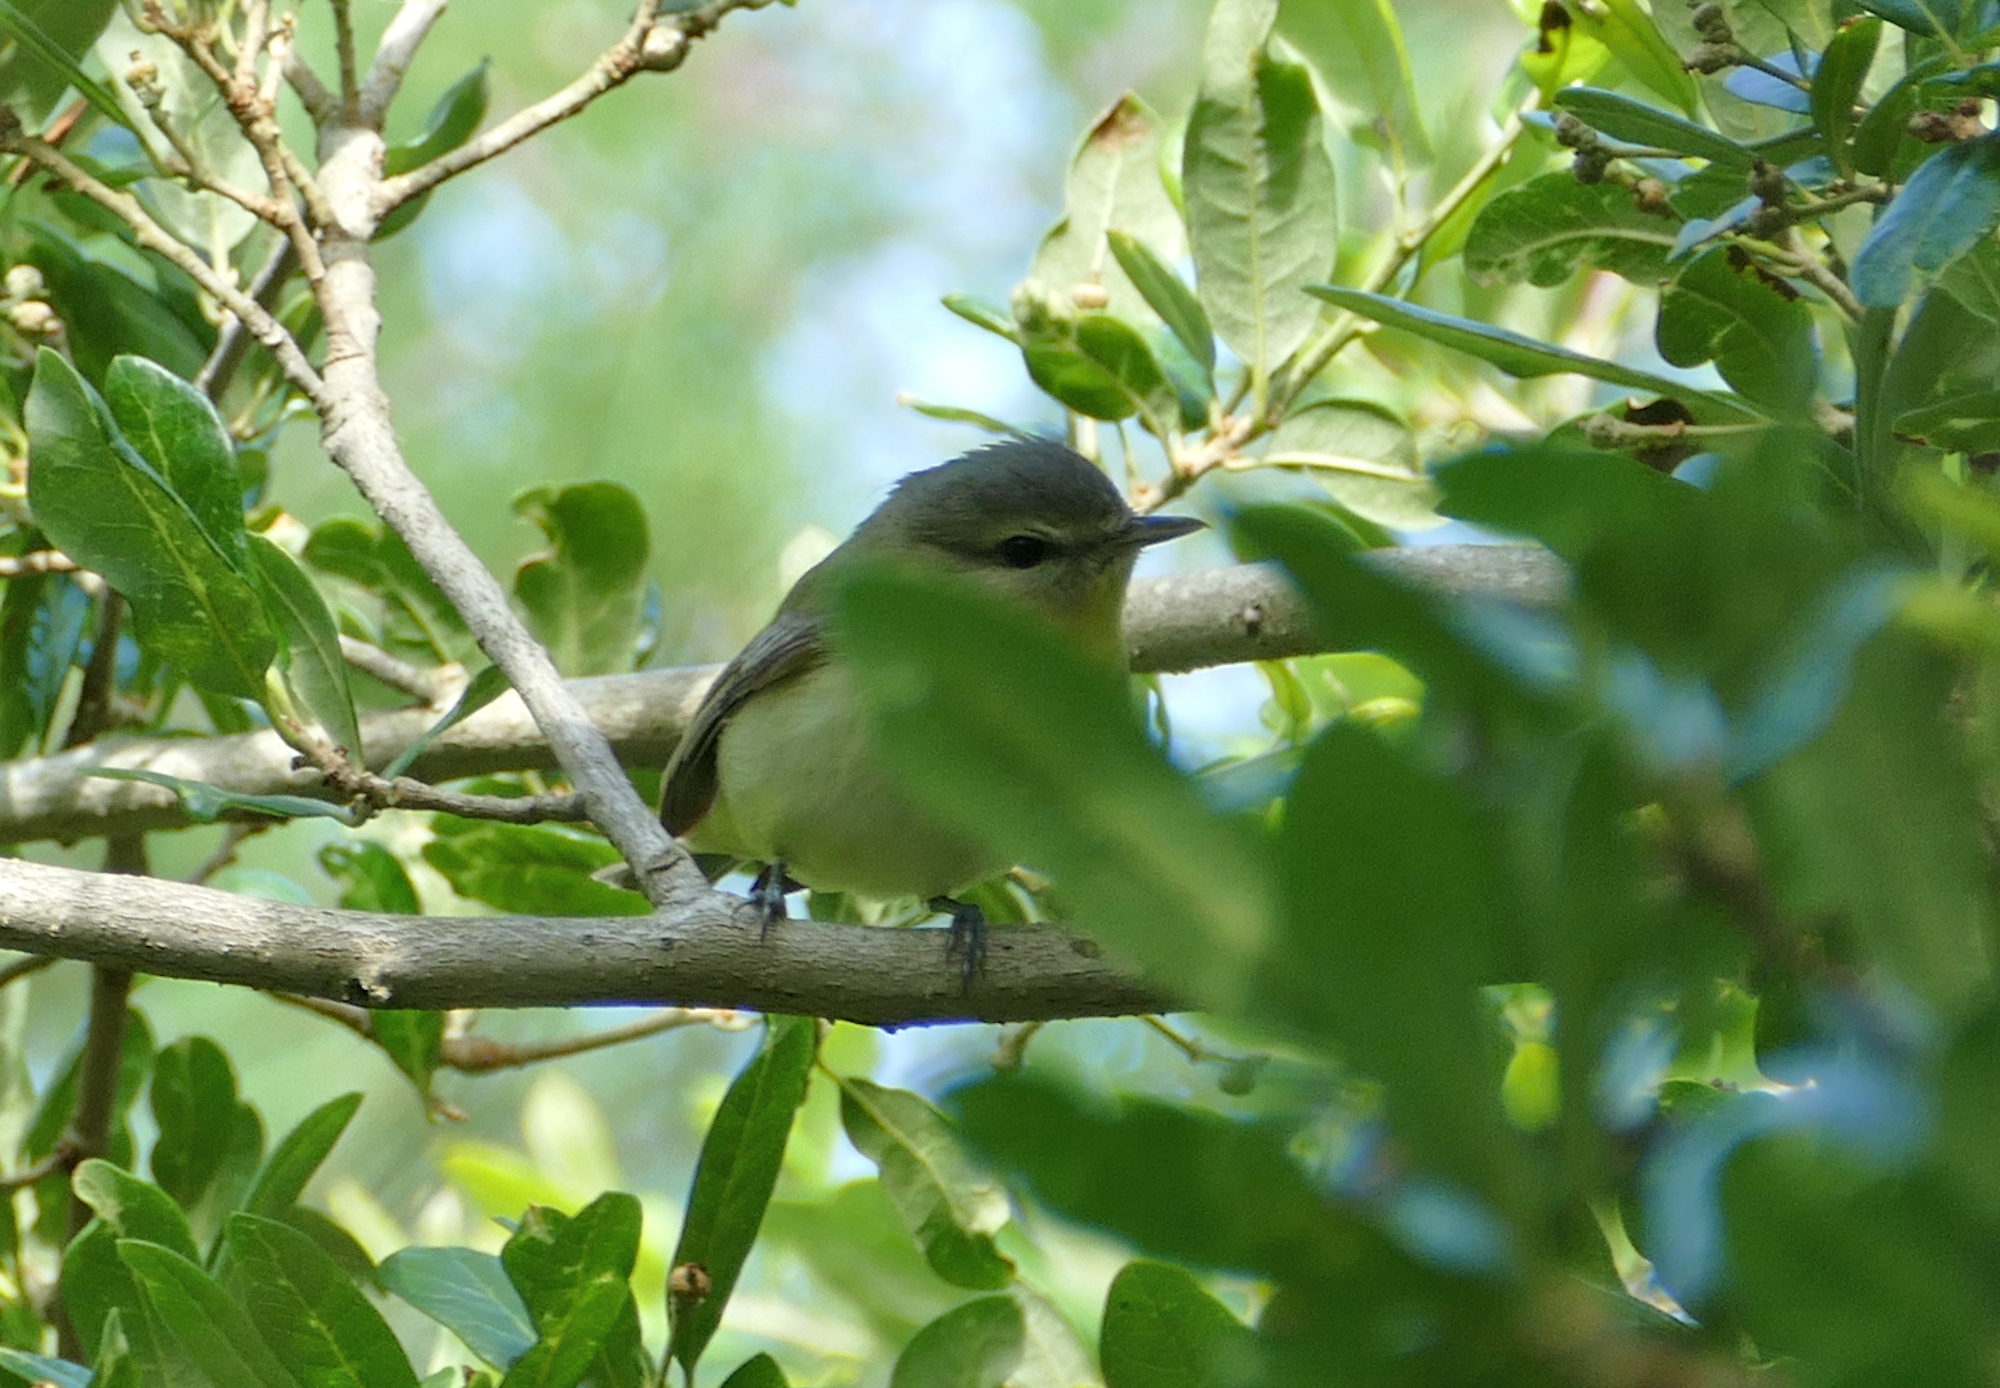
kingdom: Animalia
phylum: Chordata
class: Aves
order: Passeriformes
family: Vireonidae
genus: Vireo
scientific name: Vireo philadelphicus
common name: Philadelphia vireo
